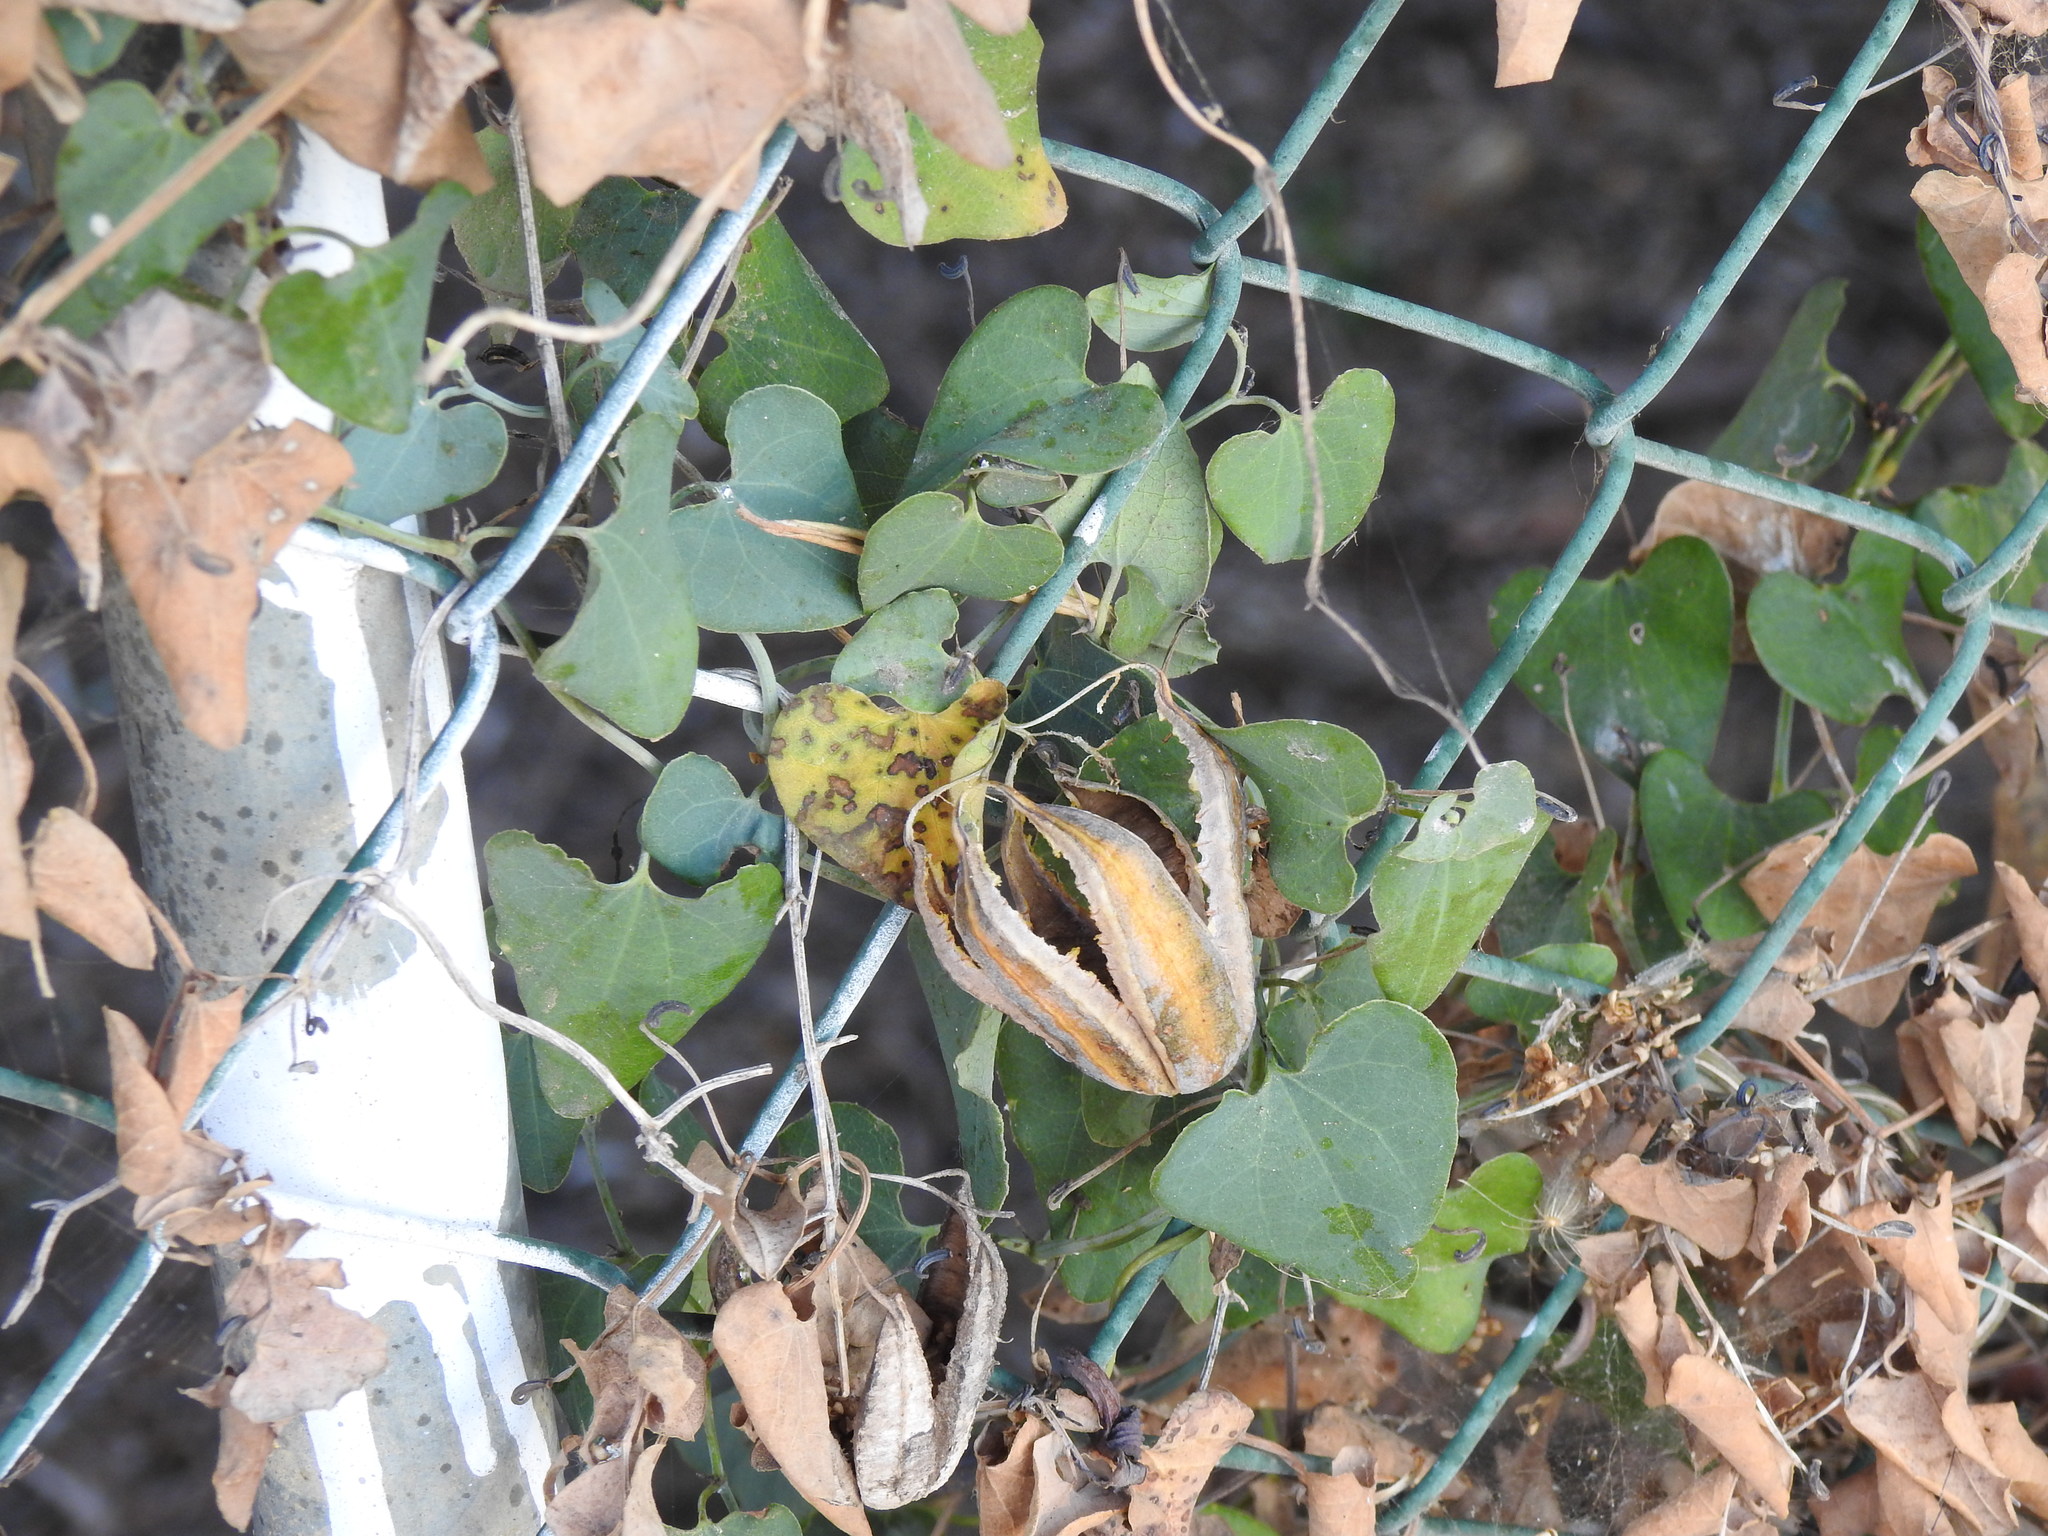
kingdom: Plantae
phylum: Tracheophyta
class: Magnoliopsida
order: Piperales
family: Aristolochiaceae
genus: Aristolochia
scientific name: Aristolochia baetica
